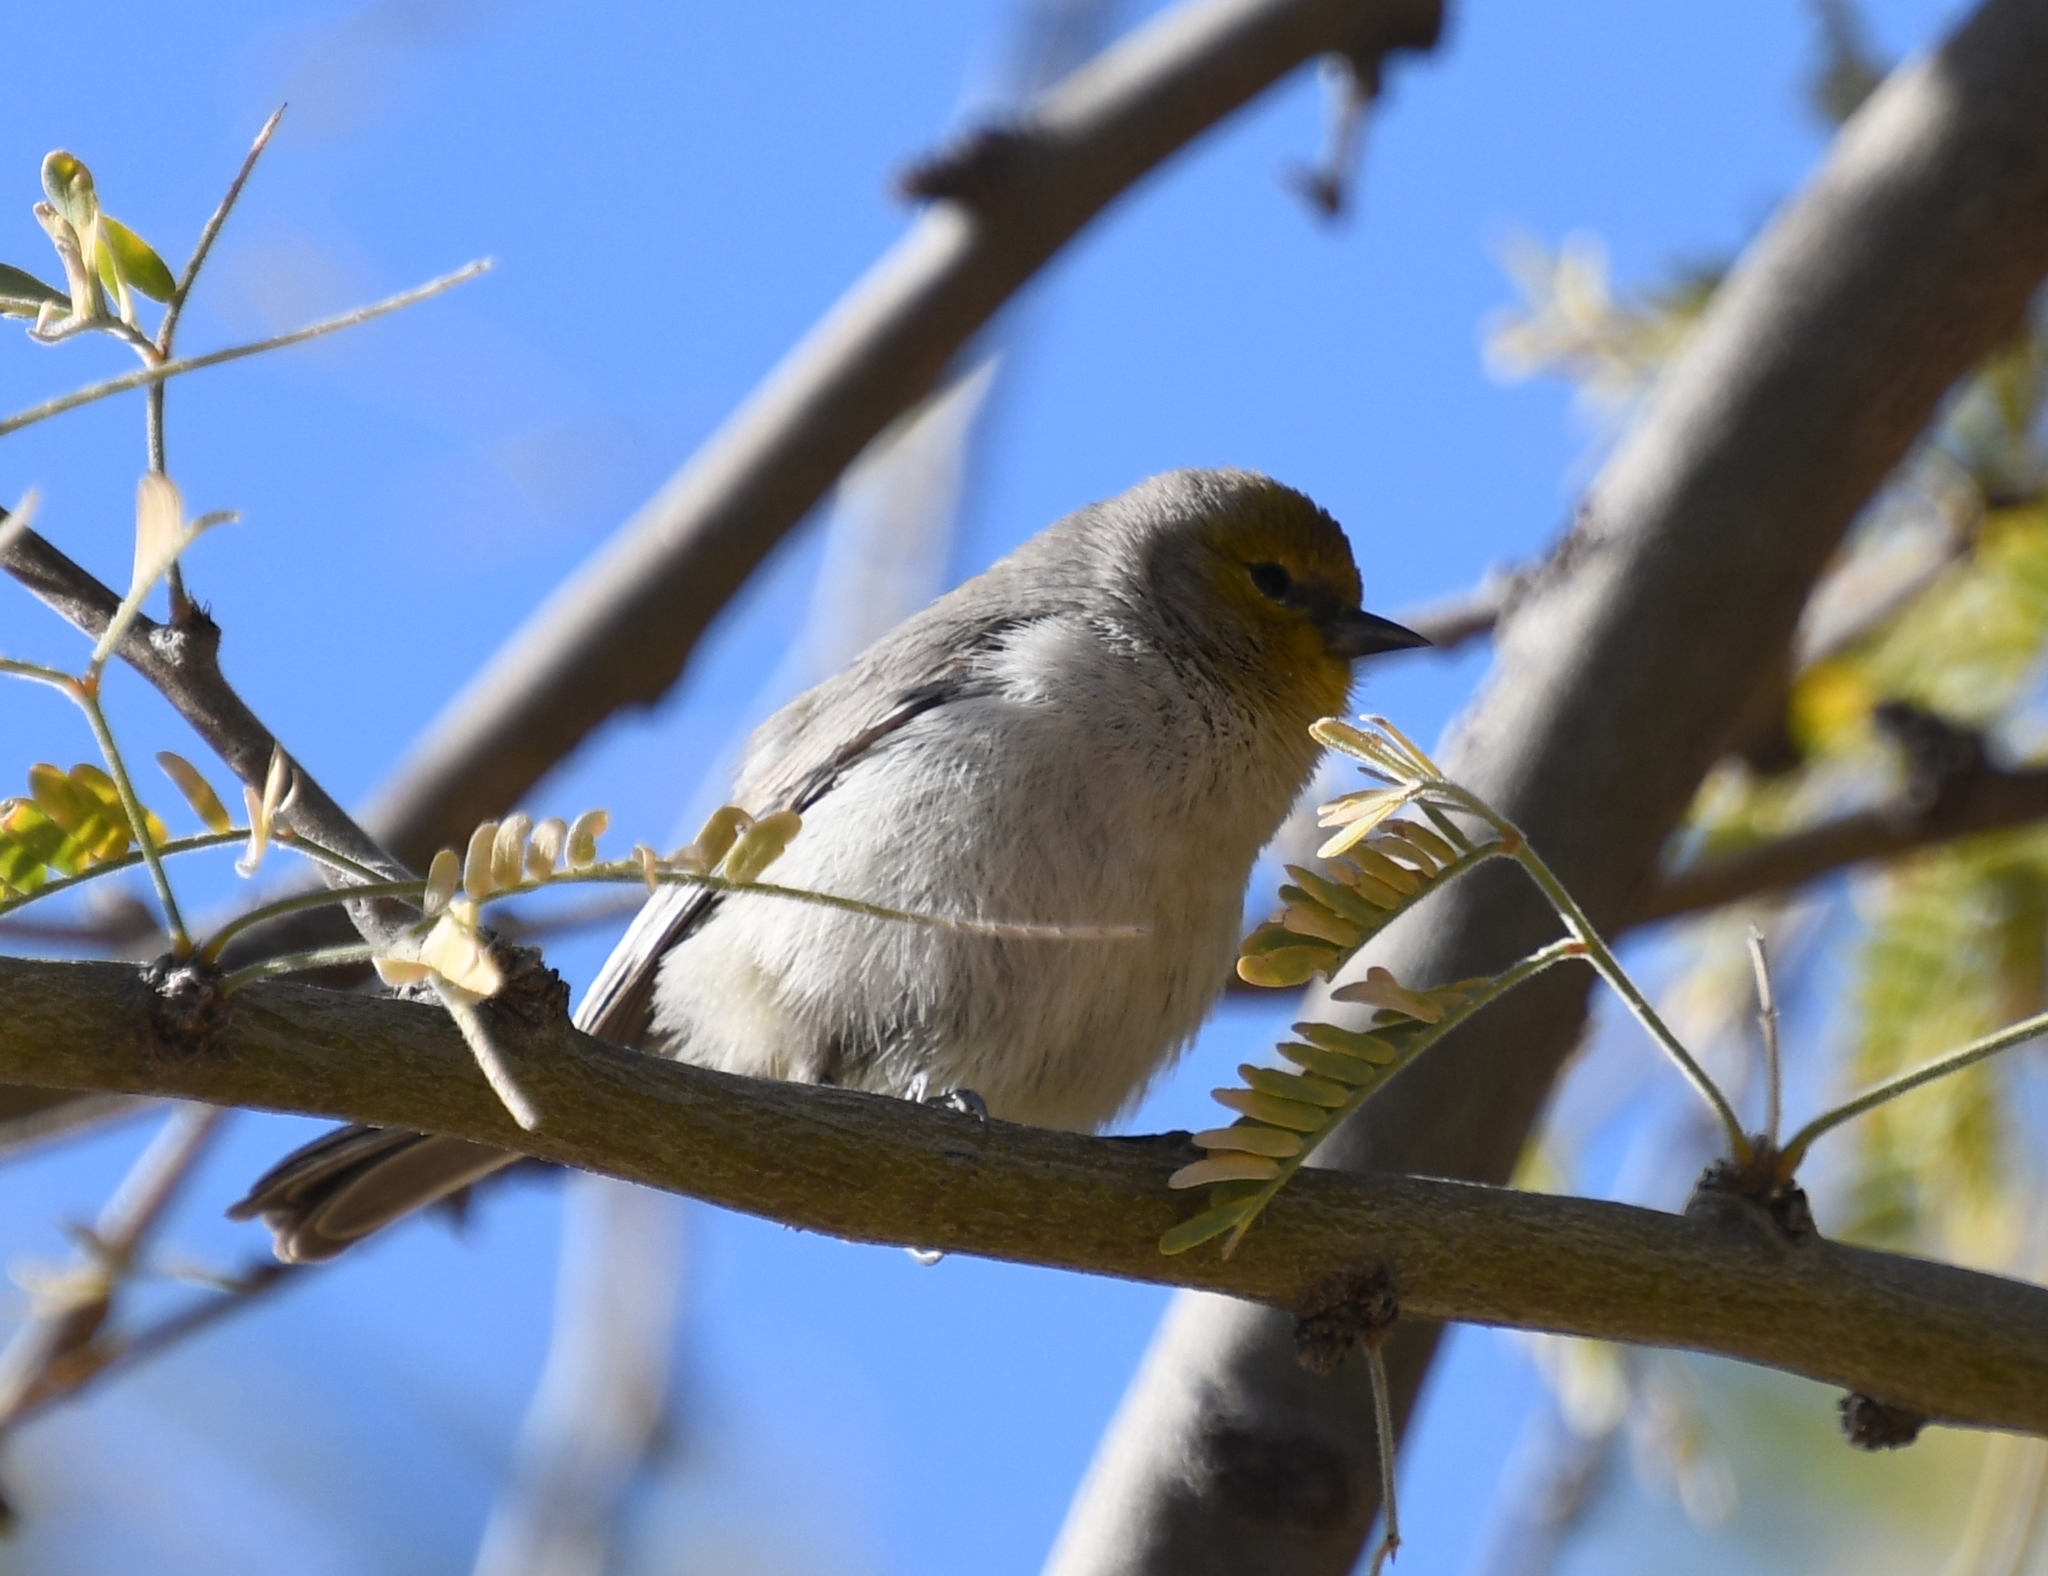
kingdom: Animalia
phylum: Chordata
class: Aves
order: Passeriformes
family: Remizidae
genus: Auriparus
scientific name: Auriparus flaviceps
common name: Verdin
